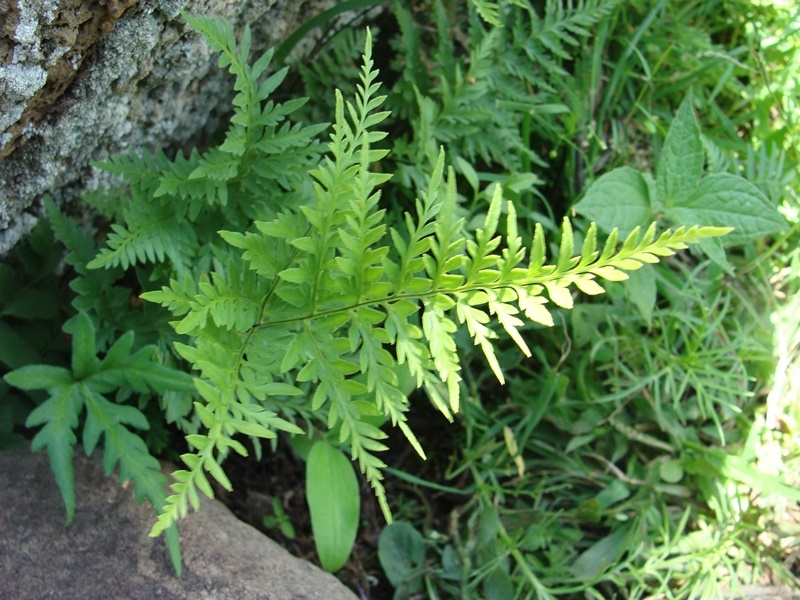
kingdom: Plantae
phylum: Tracheophyta
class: Polypodiopsida
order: Polypodiales
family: Pteridaceae
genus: Pityrogramma
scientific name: Pityrogramma calomelanos
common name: Dixie silverback fern
